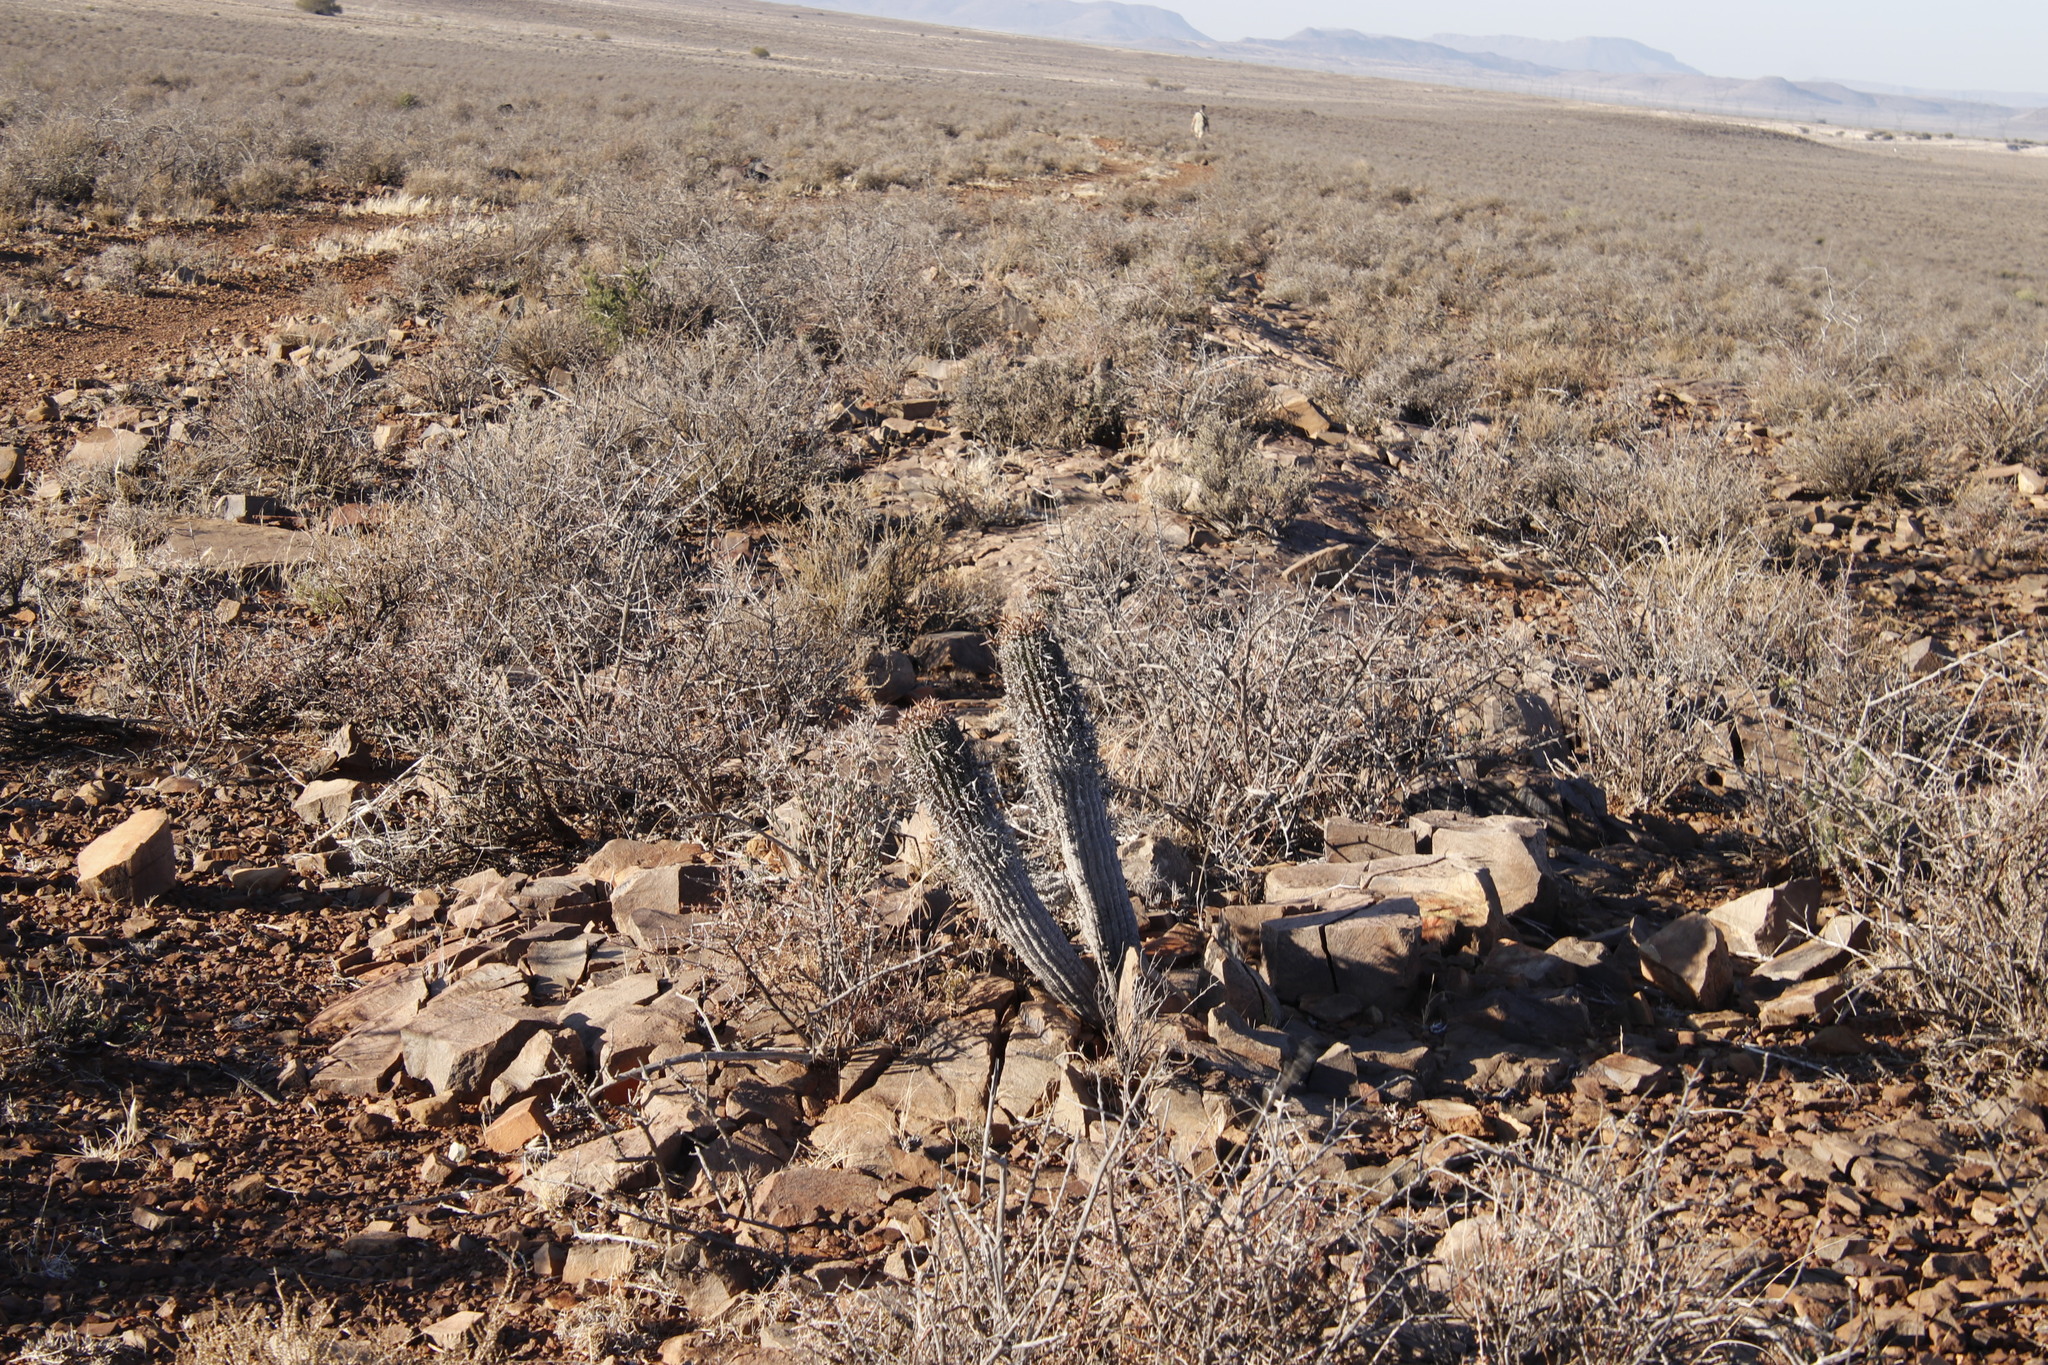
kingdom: Plantae
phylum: Tracheophyta
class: Magnoliopsida
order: Malpighiales
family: Euphorbiaceae
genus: Euphorbia
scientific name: Euphorbia stellispina
